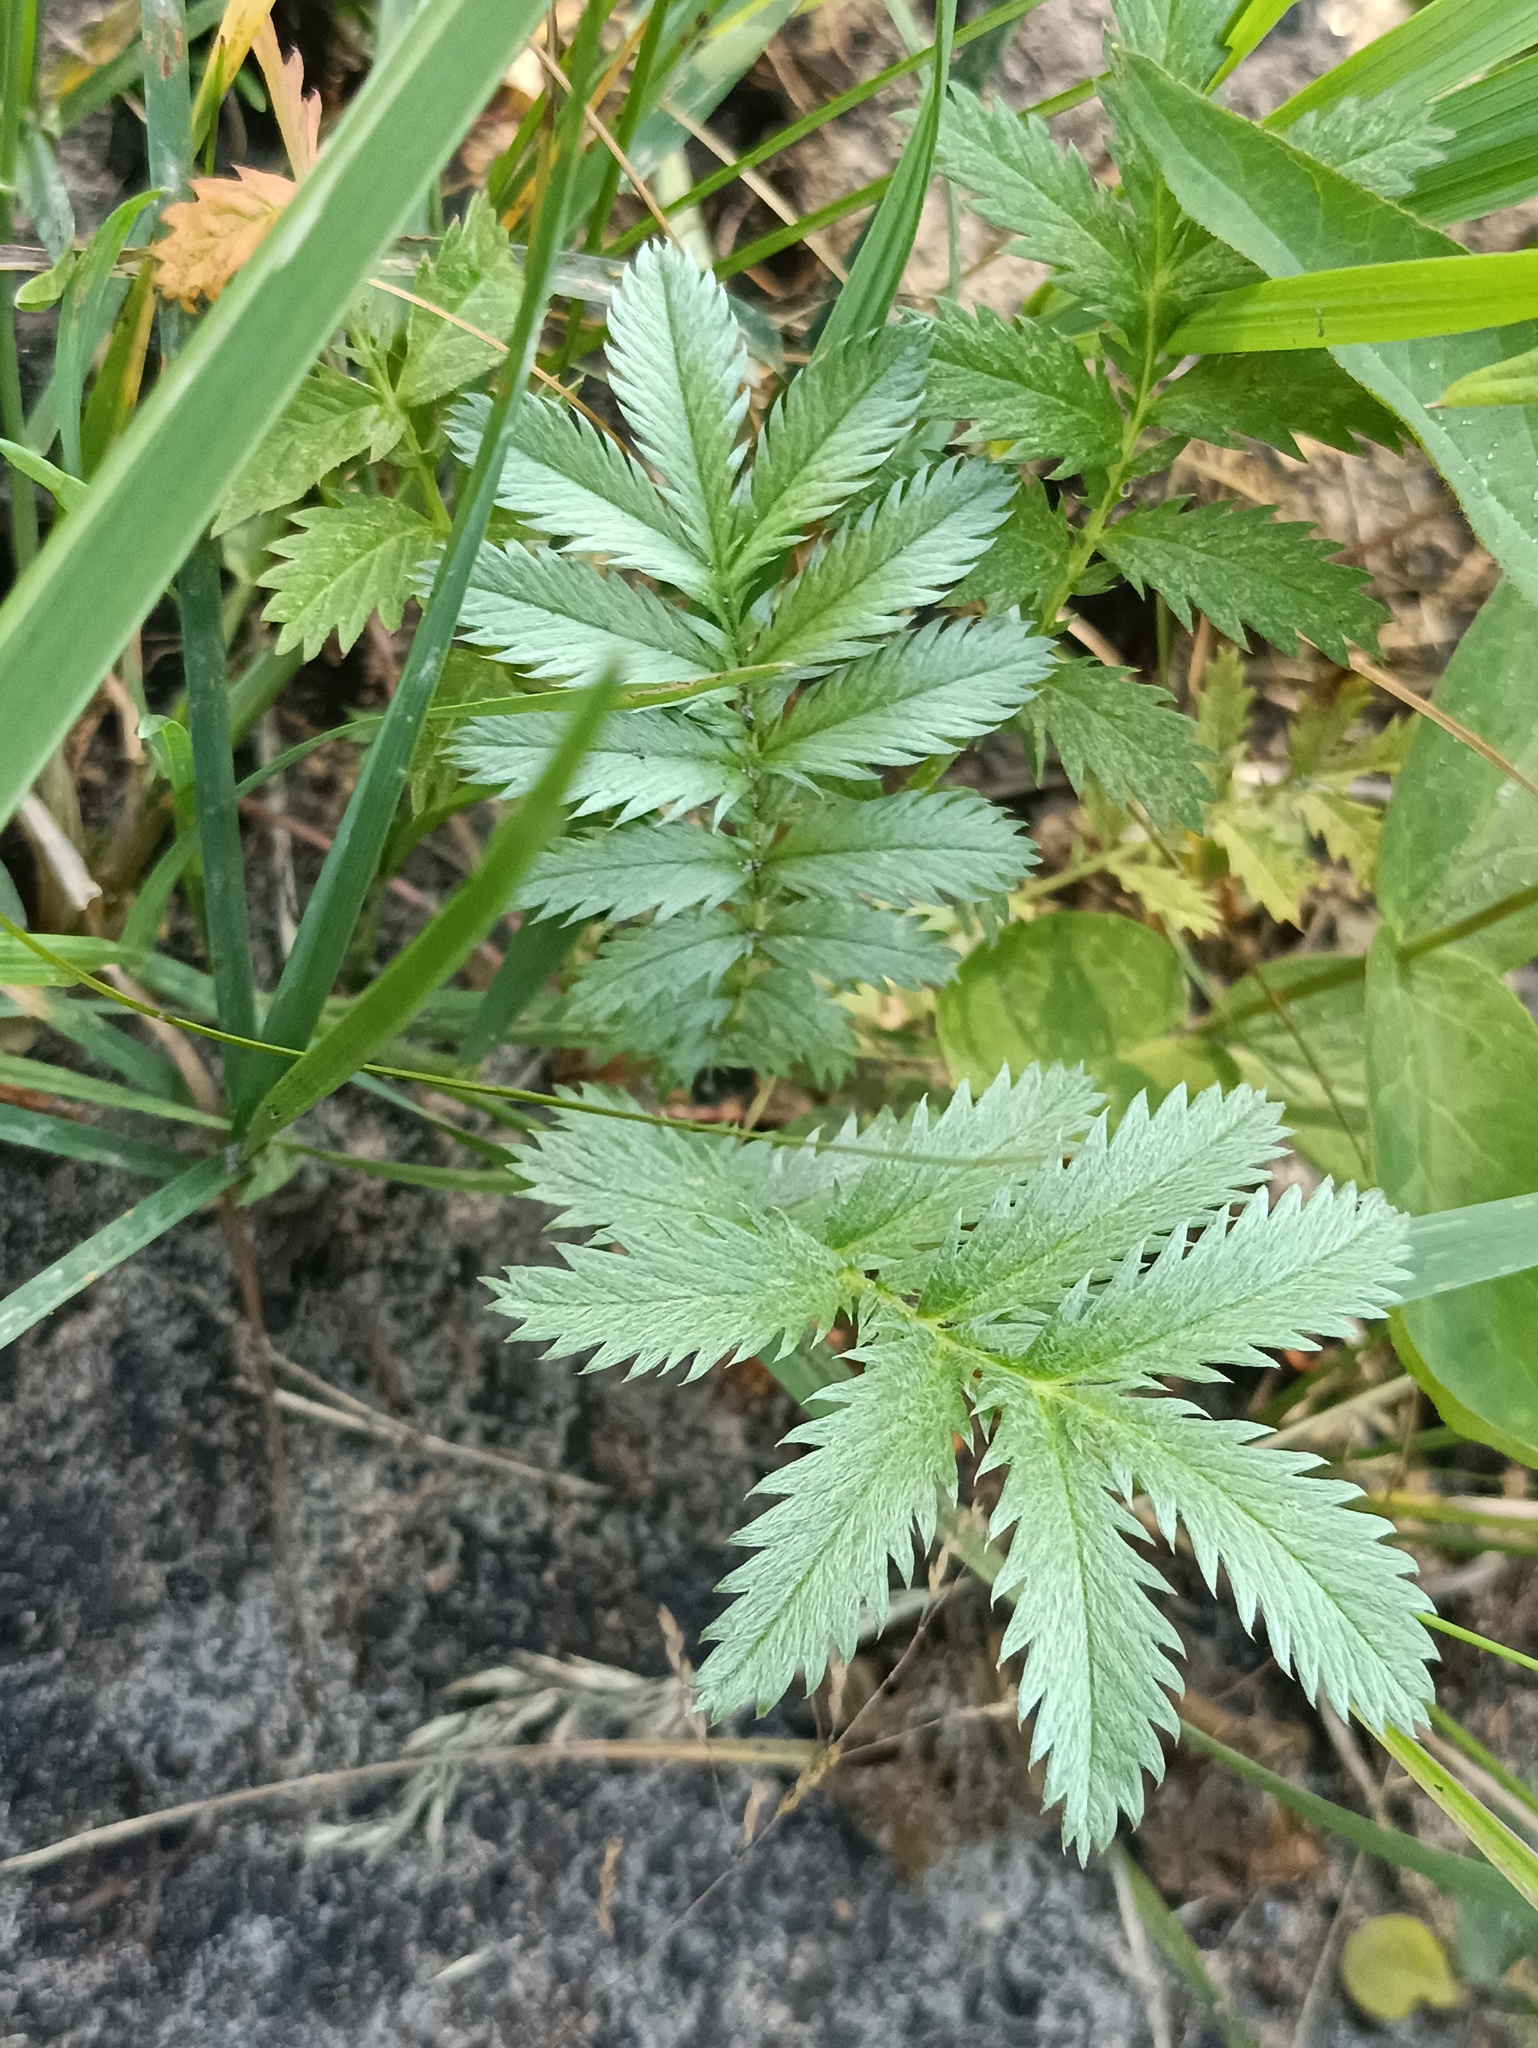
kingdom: Plantae
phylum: Tracheophyta
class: Magnoliopsida
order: Rosales
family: Rosaceae
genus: Argentina
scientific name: Argentina anserina
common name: Common silverweed
